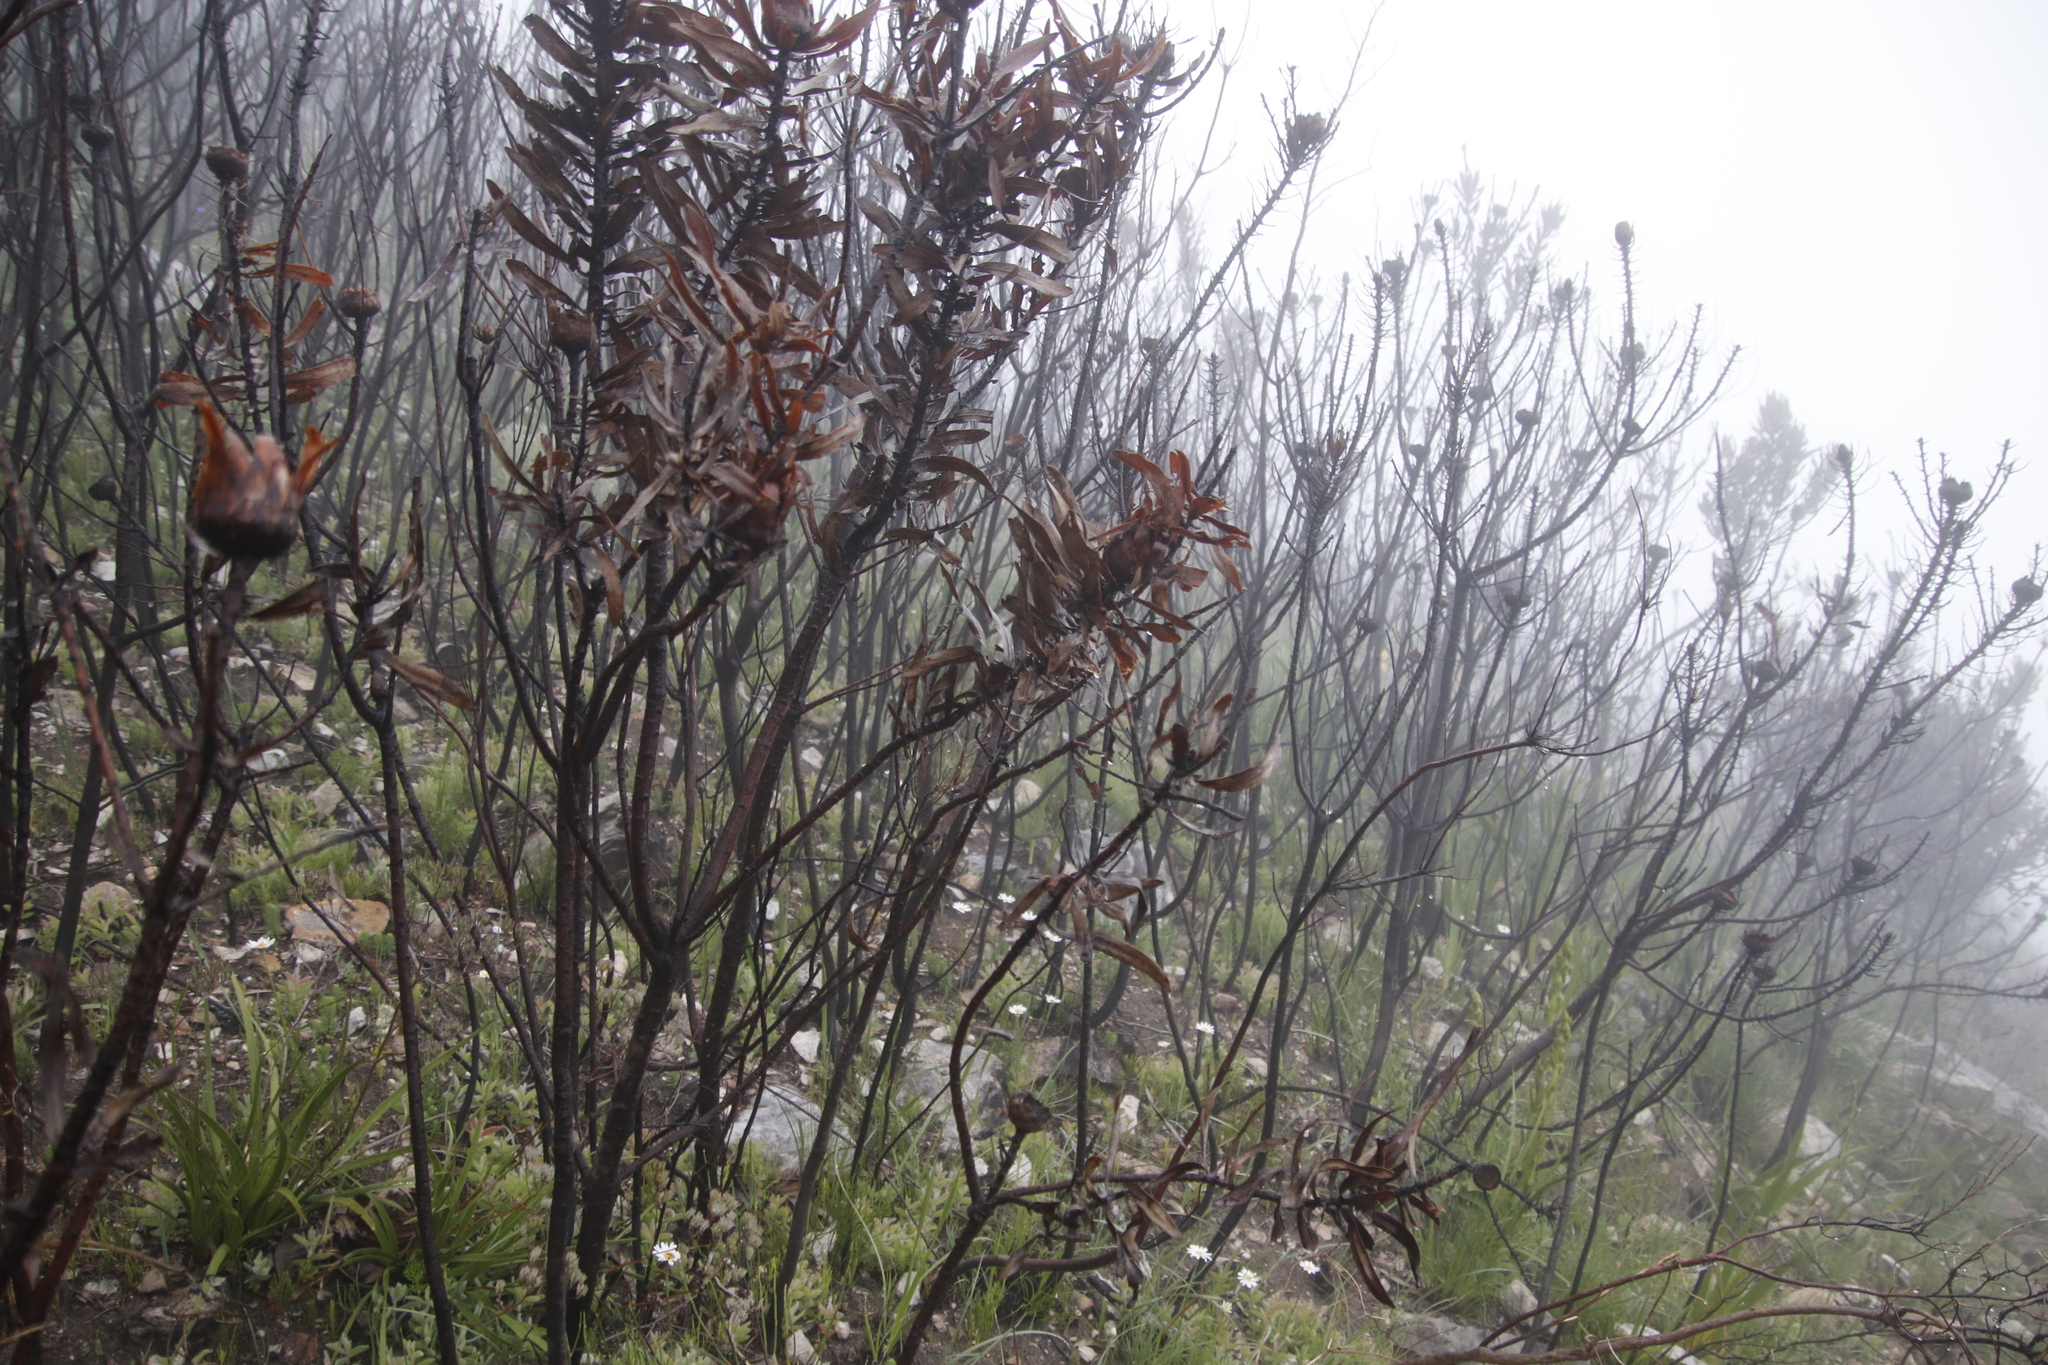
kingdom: Plantae
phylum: Tracheophyta
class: Magnoliopsida
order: Proteales
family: Proteaceae
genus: Protea
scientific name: Protea neriifolia
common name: Blue sugarbush
